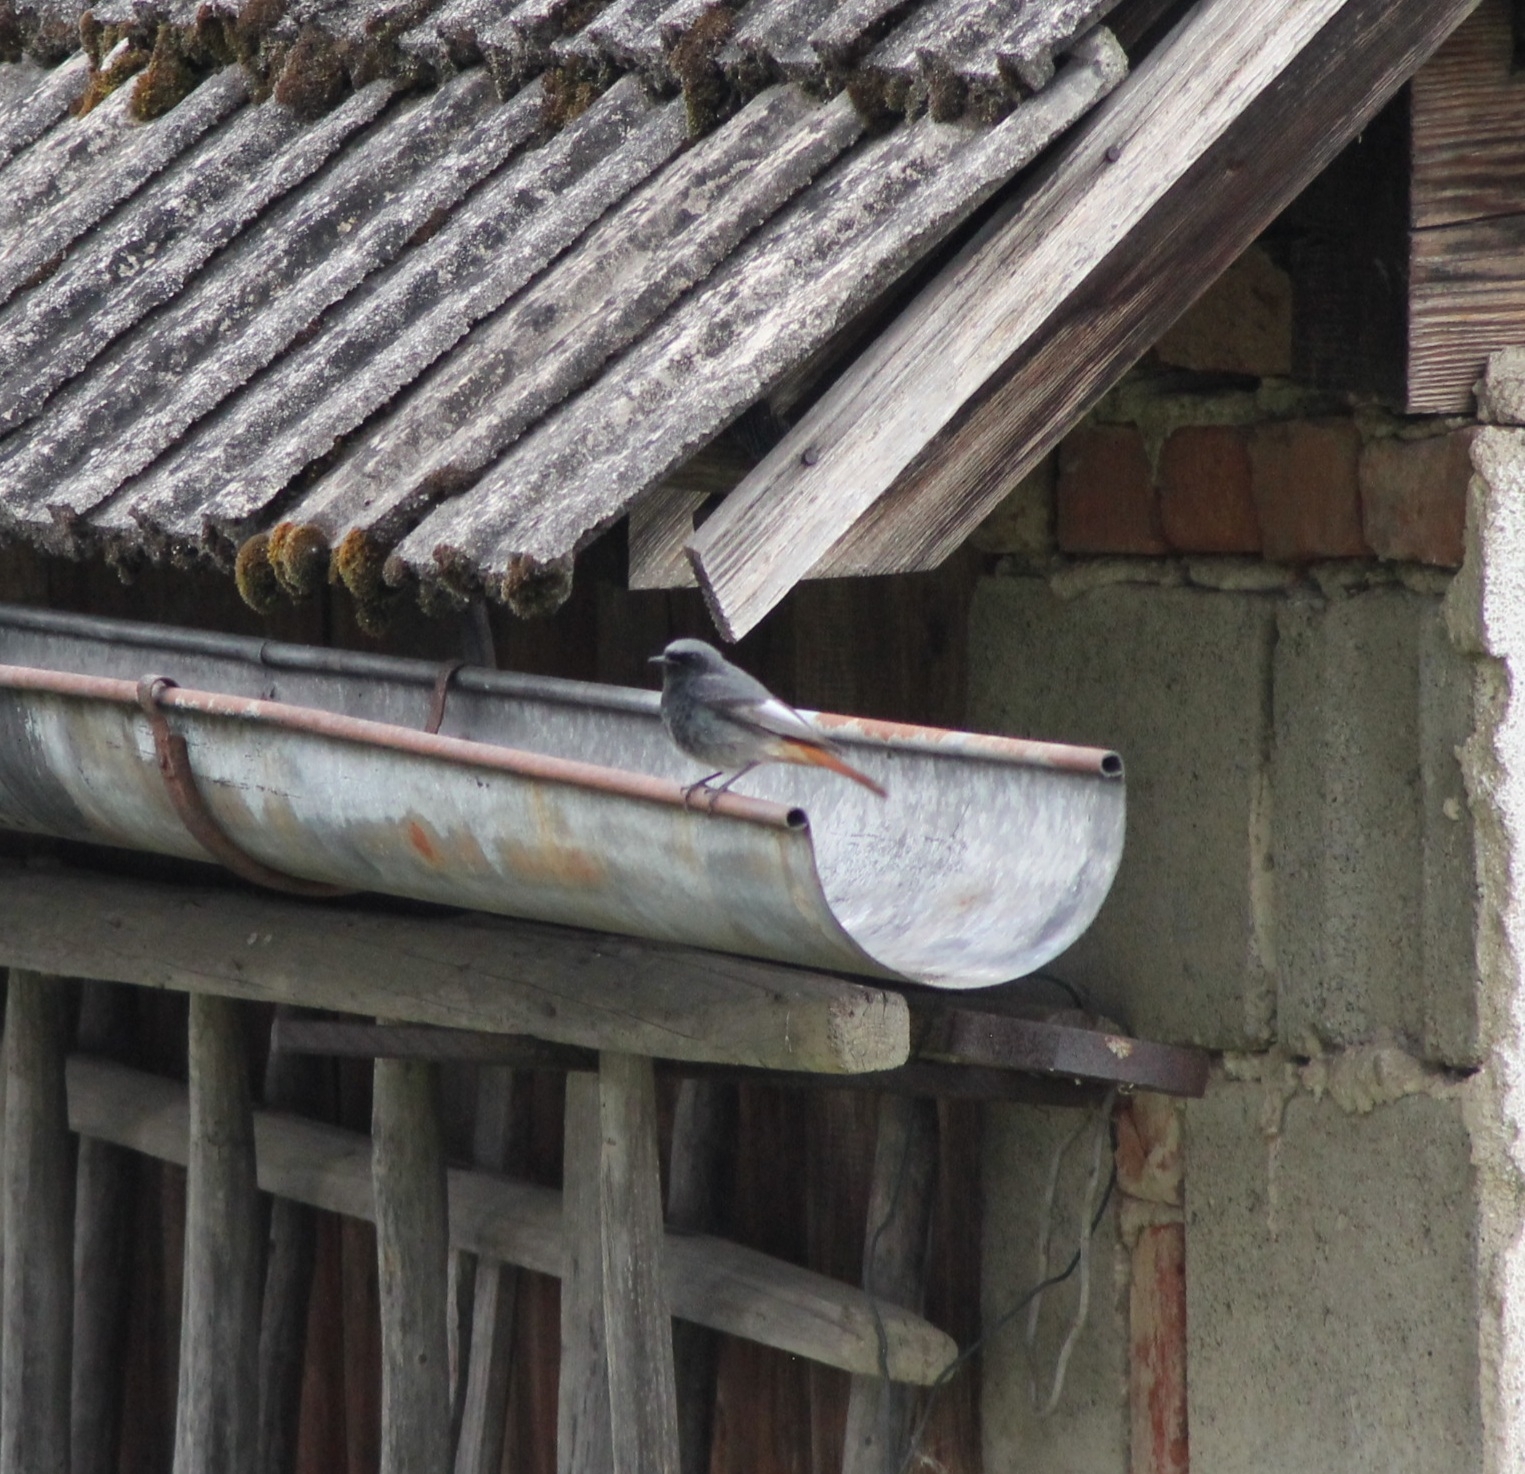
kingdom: Animalia
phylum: Chordata
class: Aves
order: Passeriformes
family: Muscicapidae
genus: Phoenicurus
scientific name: Phoenicurus ochruros
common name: Black redstart
